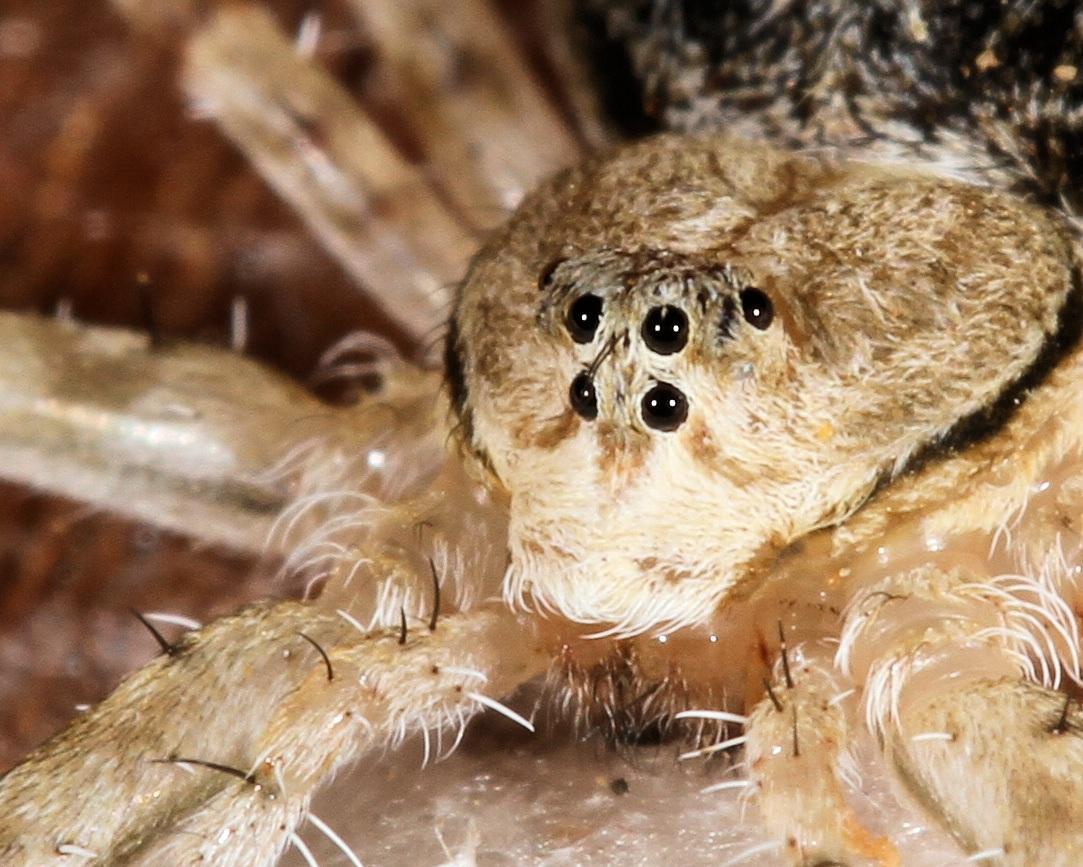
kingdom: Animalia
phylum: Arthropoda
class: Arachnida
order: Araneae
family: Hersiliidae
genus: Hersilia
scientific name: Hersilia sericea
